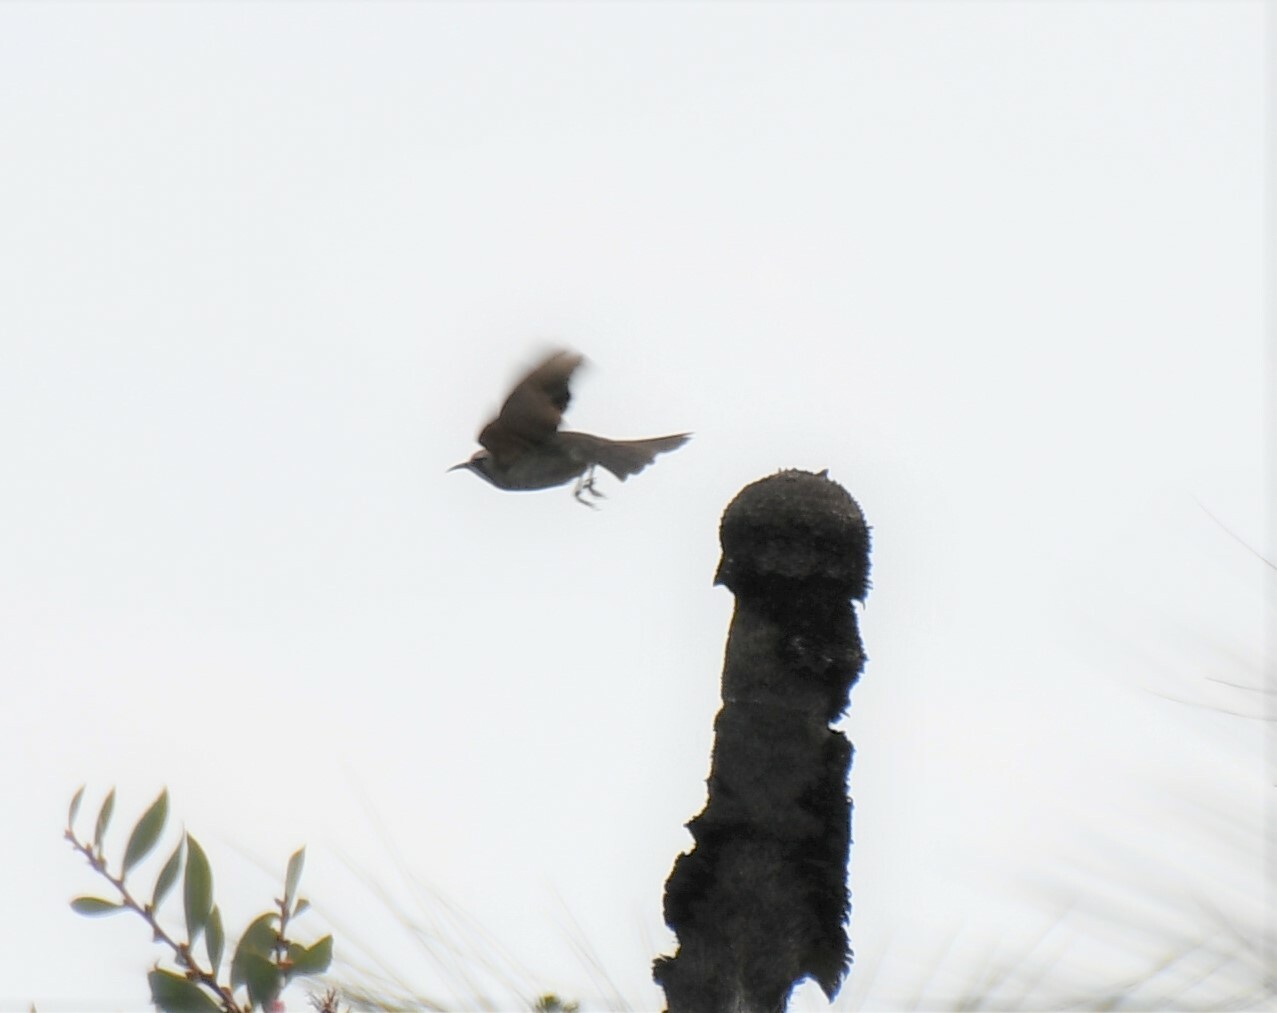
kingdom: Animalia
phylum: Chordata
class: Aves
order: Passeriformes
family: Meliphagidae
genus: Gliciphila
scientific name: Gliciphila melanops
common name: Tawny-crowned honeyeater
